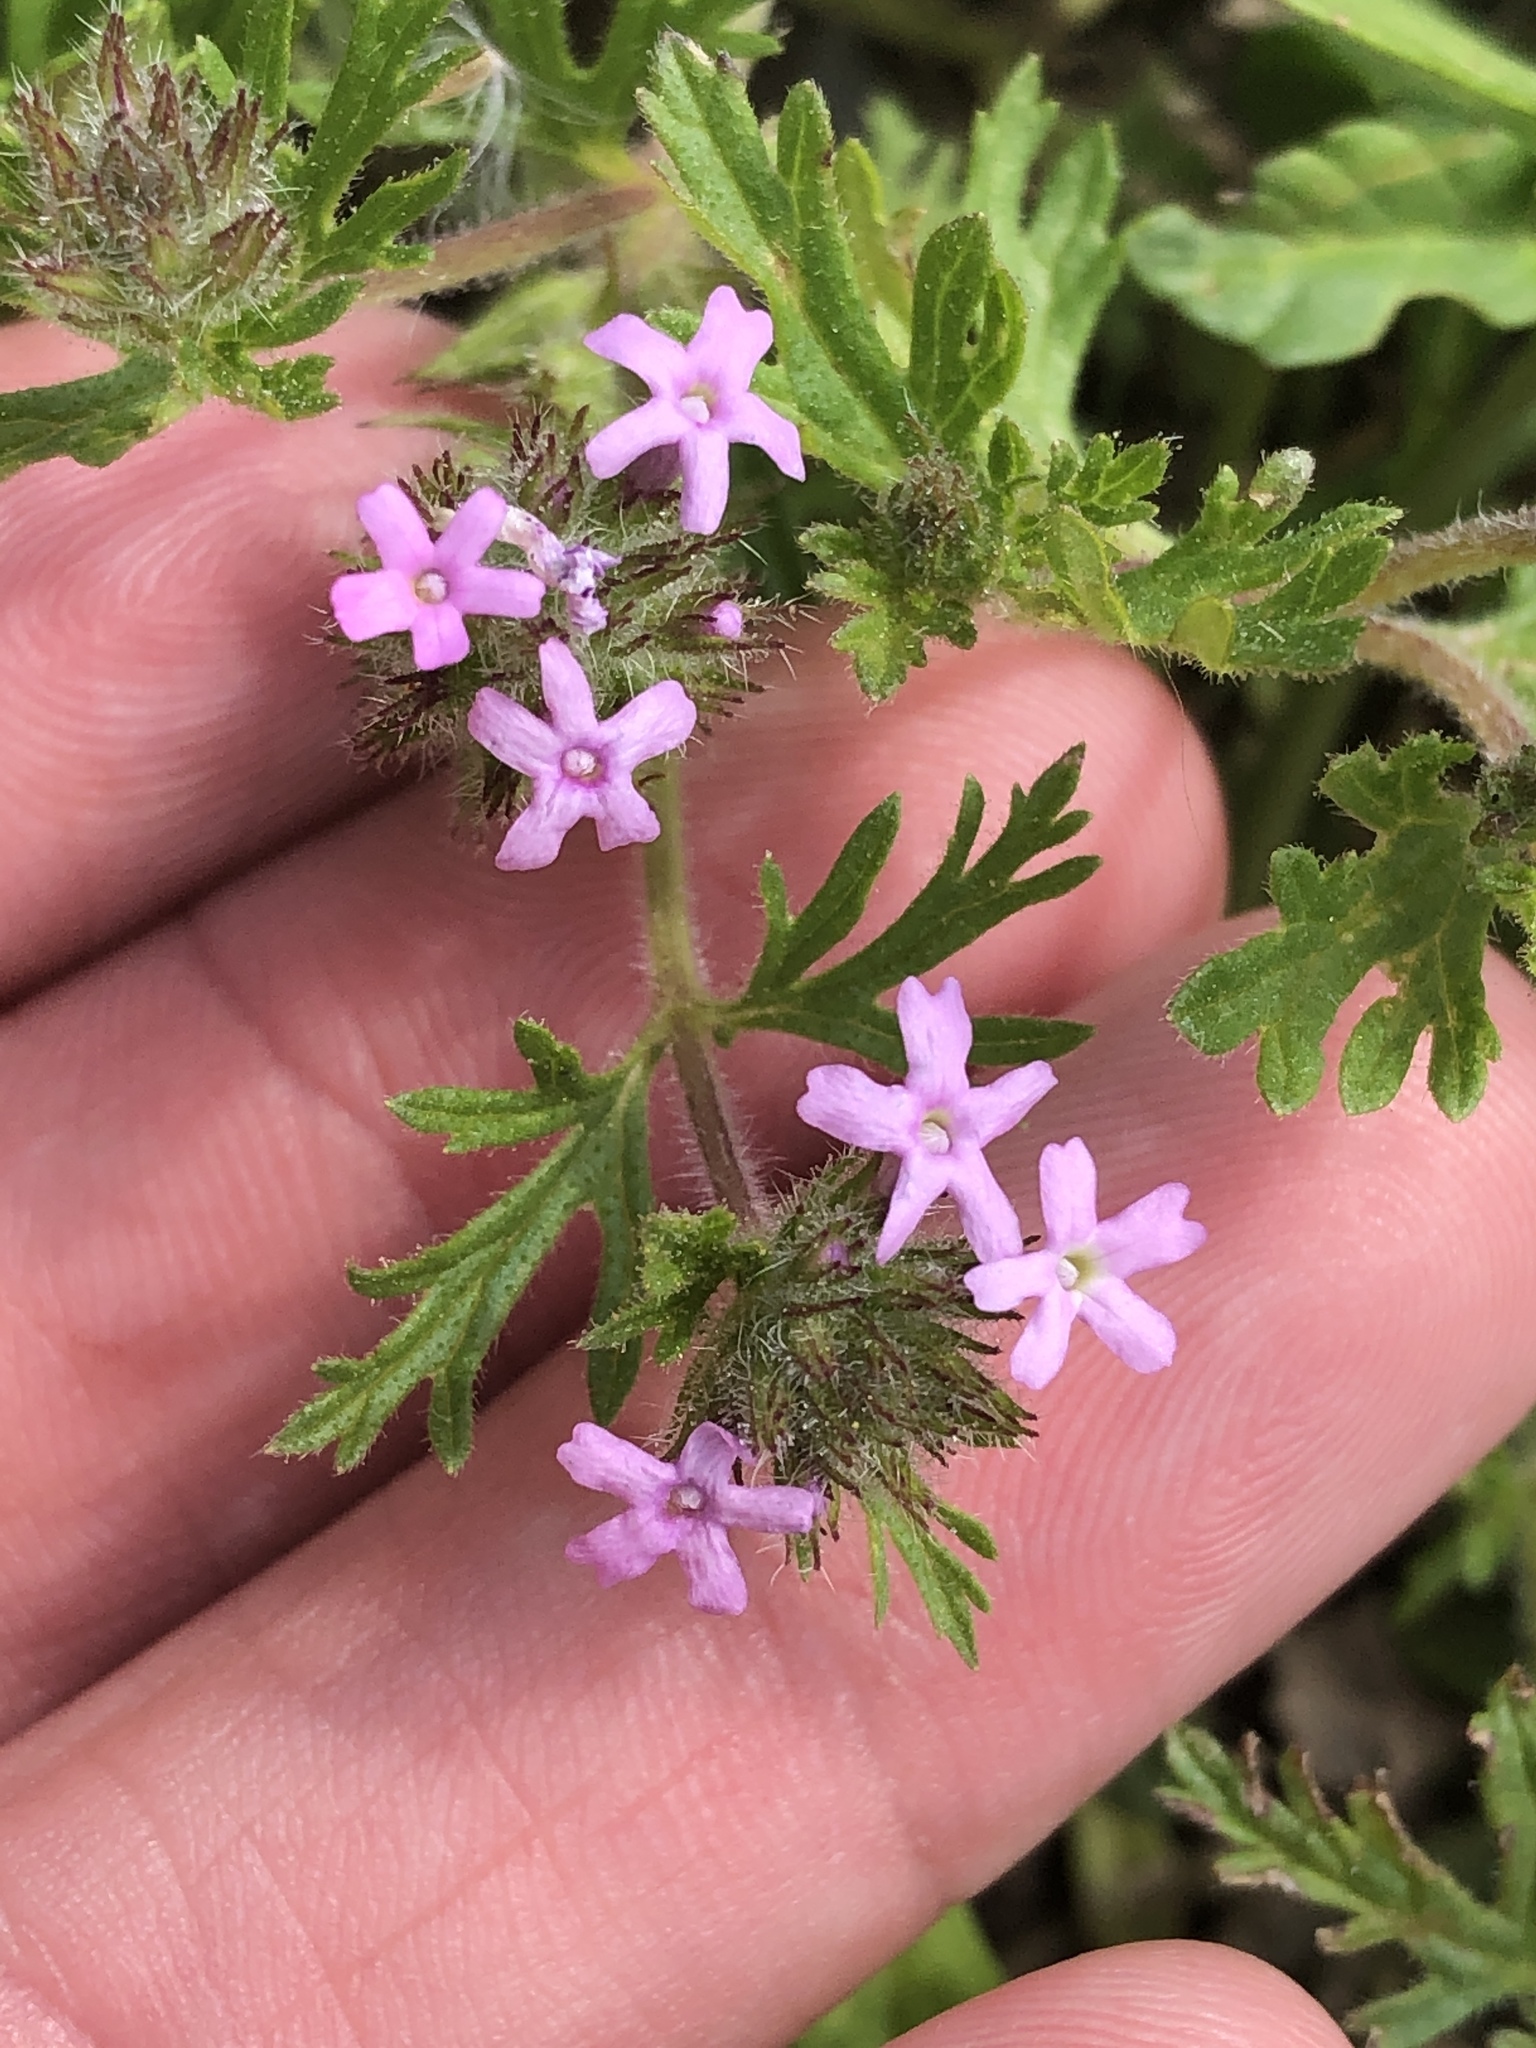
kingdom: Plantae
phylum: Tracheophyta
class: Magnoliopsida
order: Lamiales
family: Verbenaceae
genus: Verbena
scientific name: Verbena pumila
